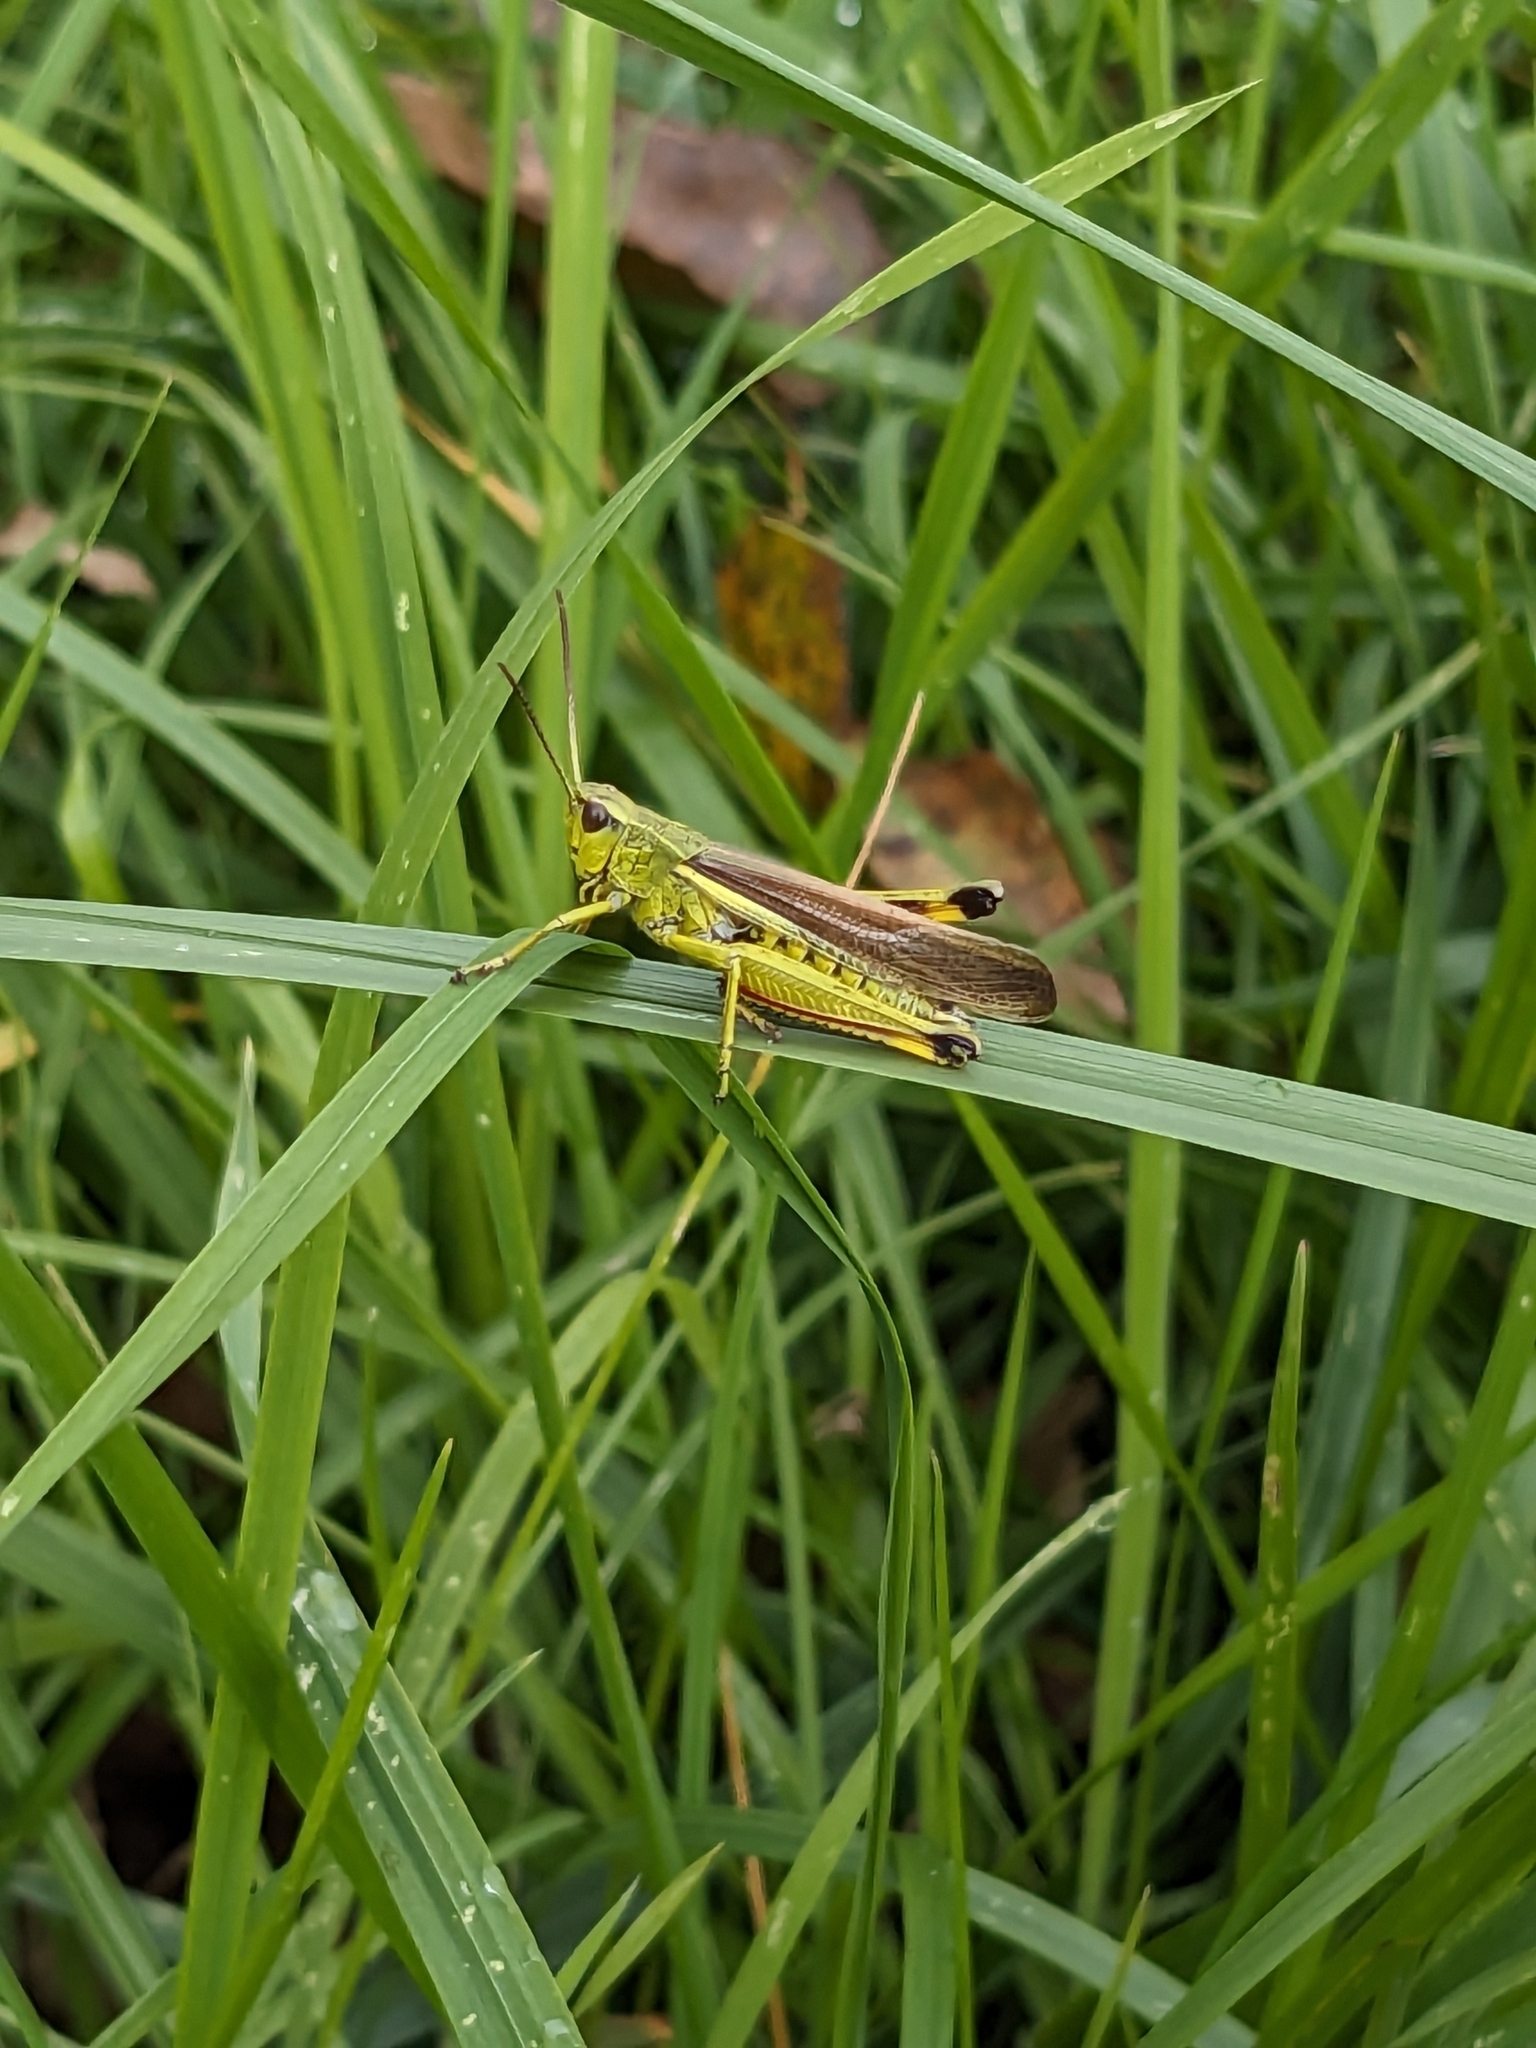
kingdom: Animalia
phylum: Arthropoda
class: Insecta
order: Orthoptera
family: Acrididae
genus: Stethophyma
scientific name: Stethophyma grossum
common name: Large marsh grasshopper
